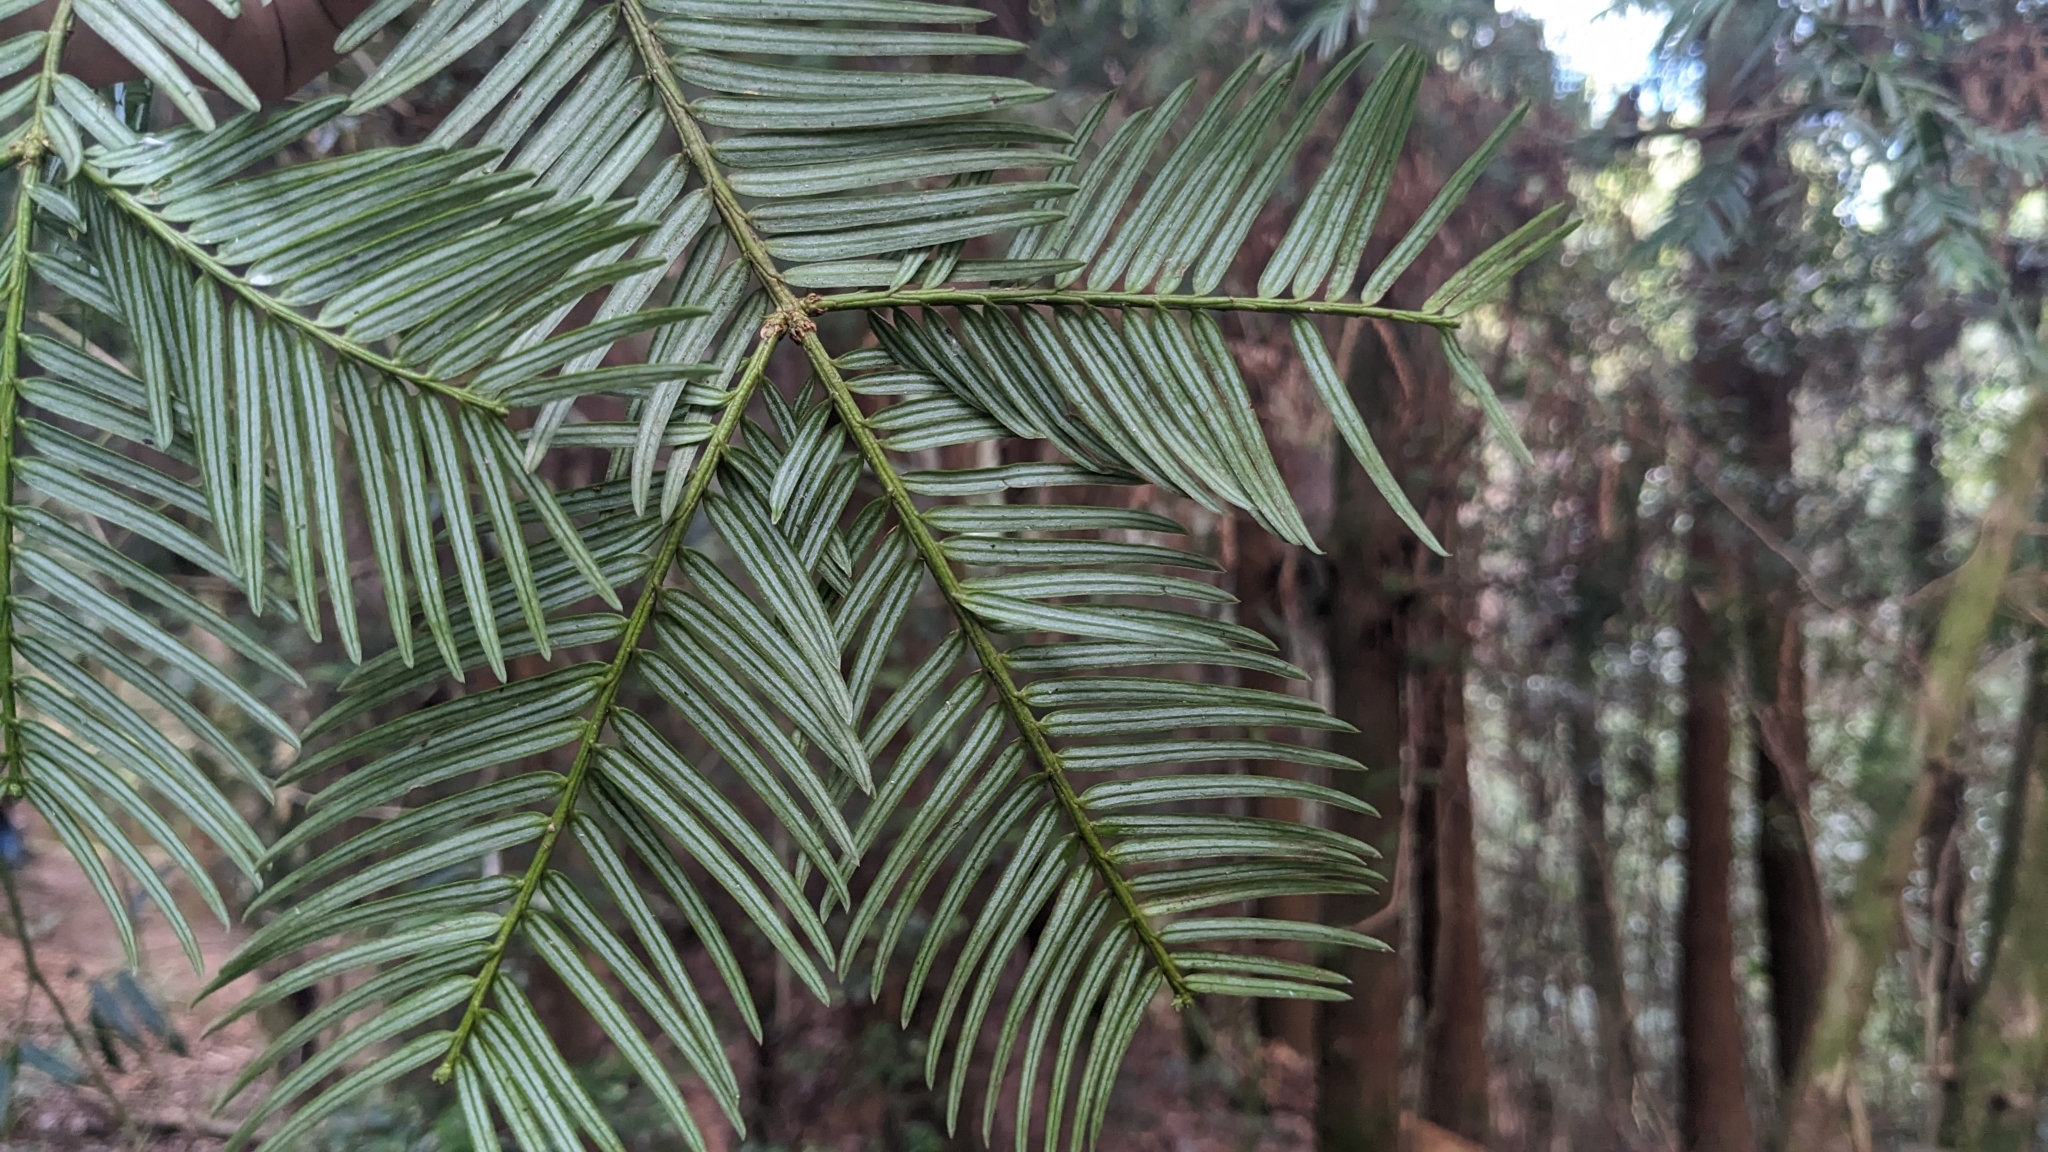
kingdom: Plantae
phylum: Tracheophyta
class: Pinopsida
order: Pinales
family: Cephalotaxaceae
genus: Cephalotaxus
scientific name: Cephalotaxus harringtonii
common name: Harrington's plum yew
